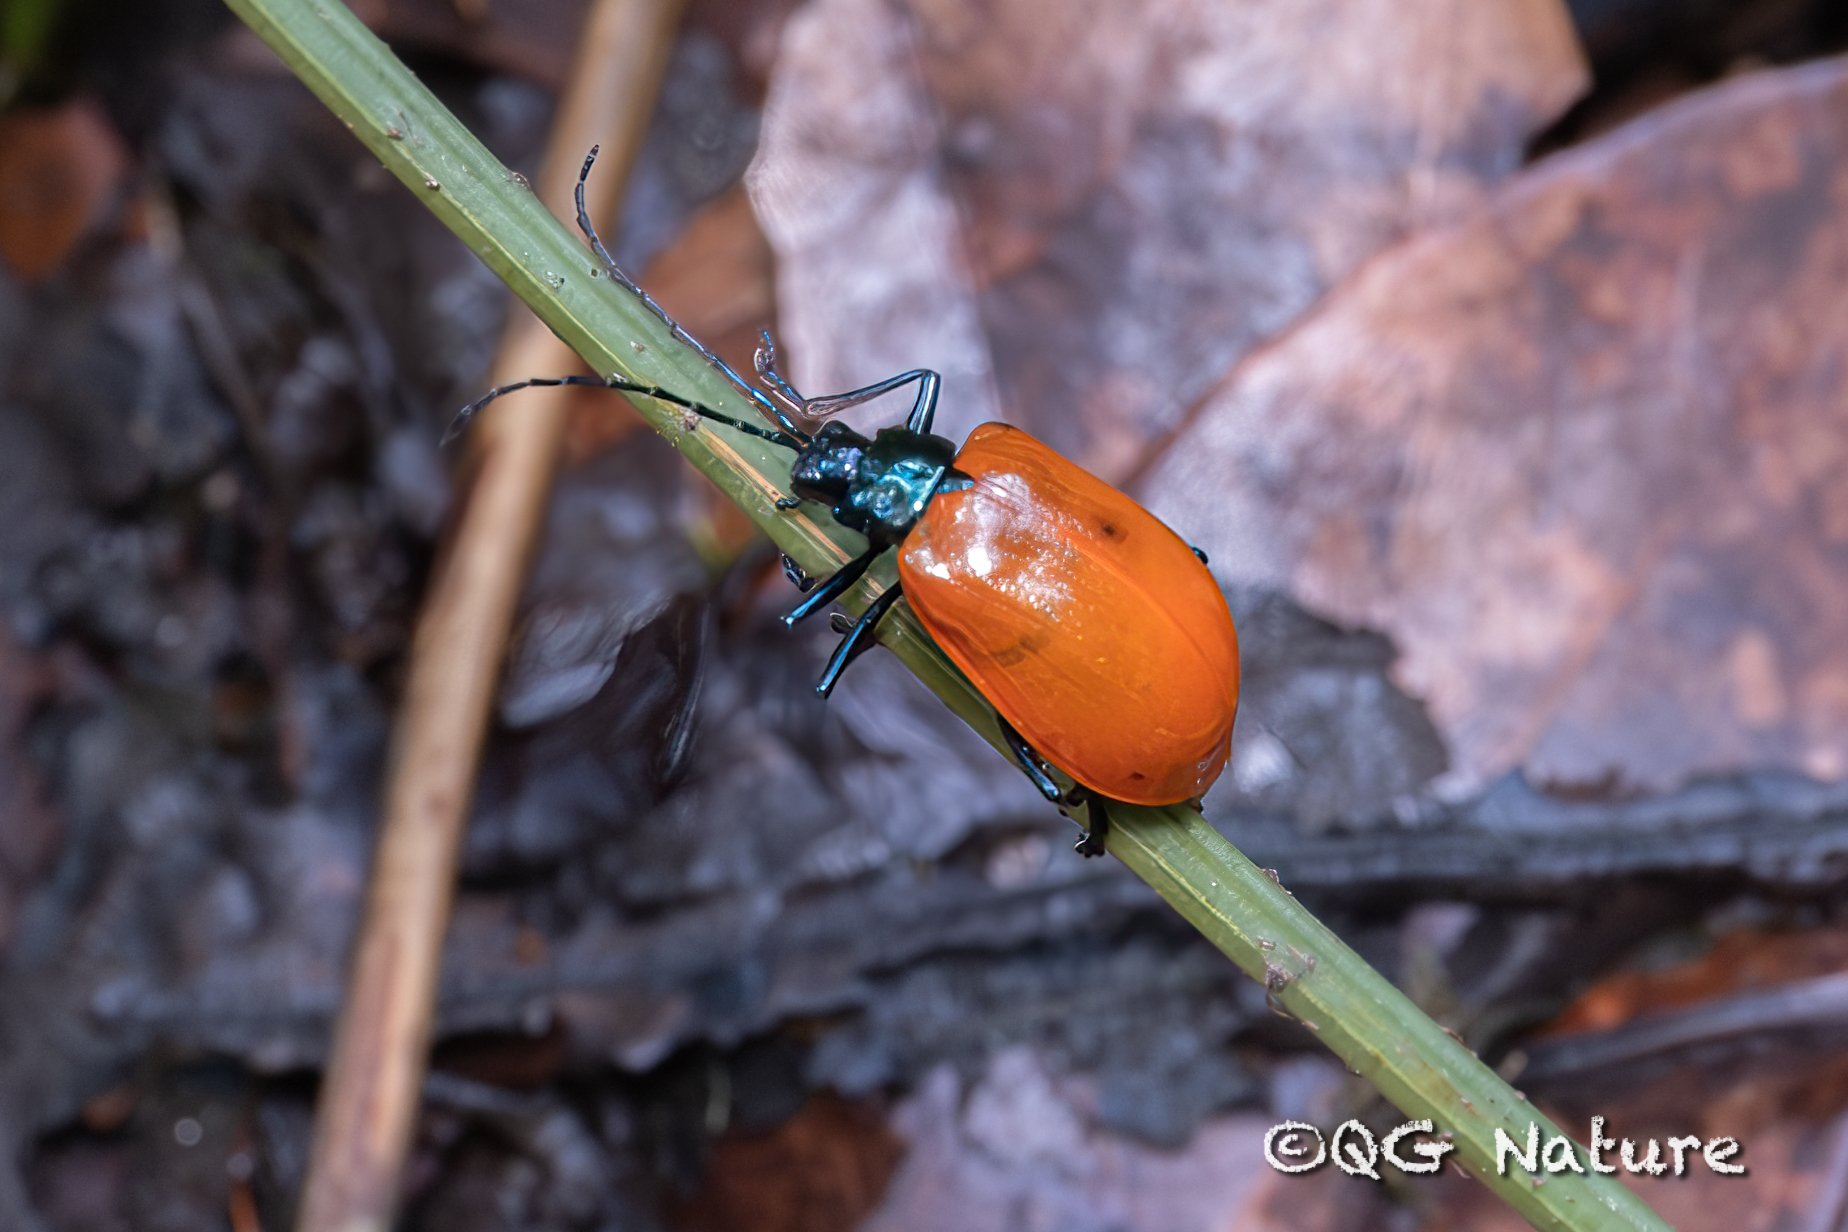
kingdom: Animalia
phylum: Arthropoda
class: Insecta
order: Coleoptera
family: Chrysomelidae
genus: Meristoides
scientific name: Meristoides grandipennis
